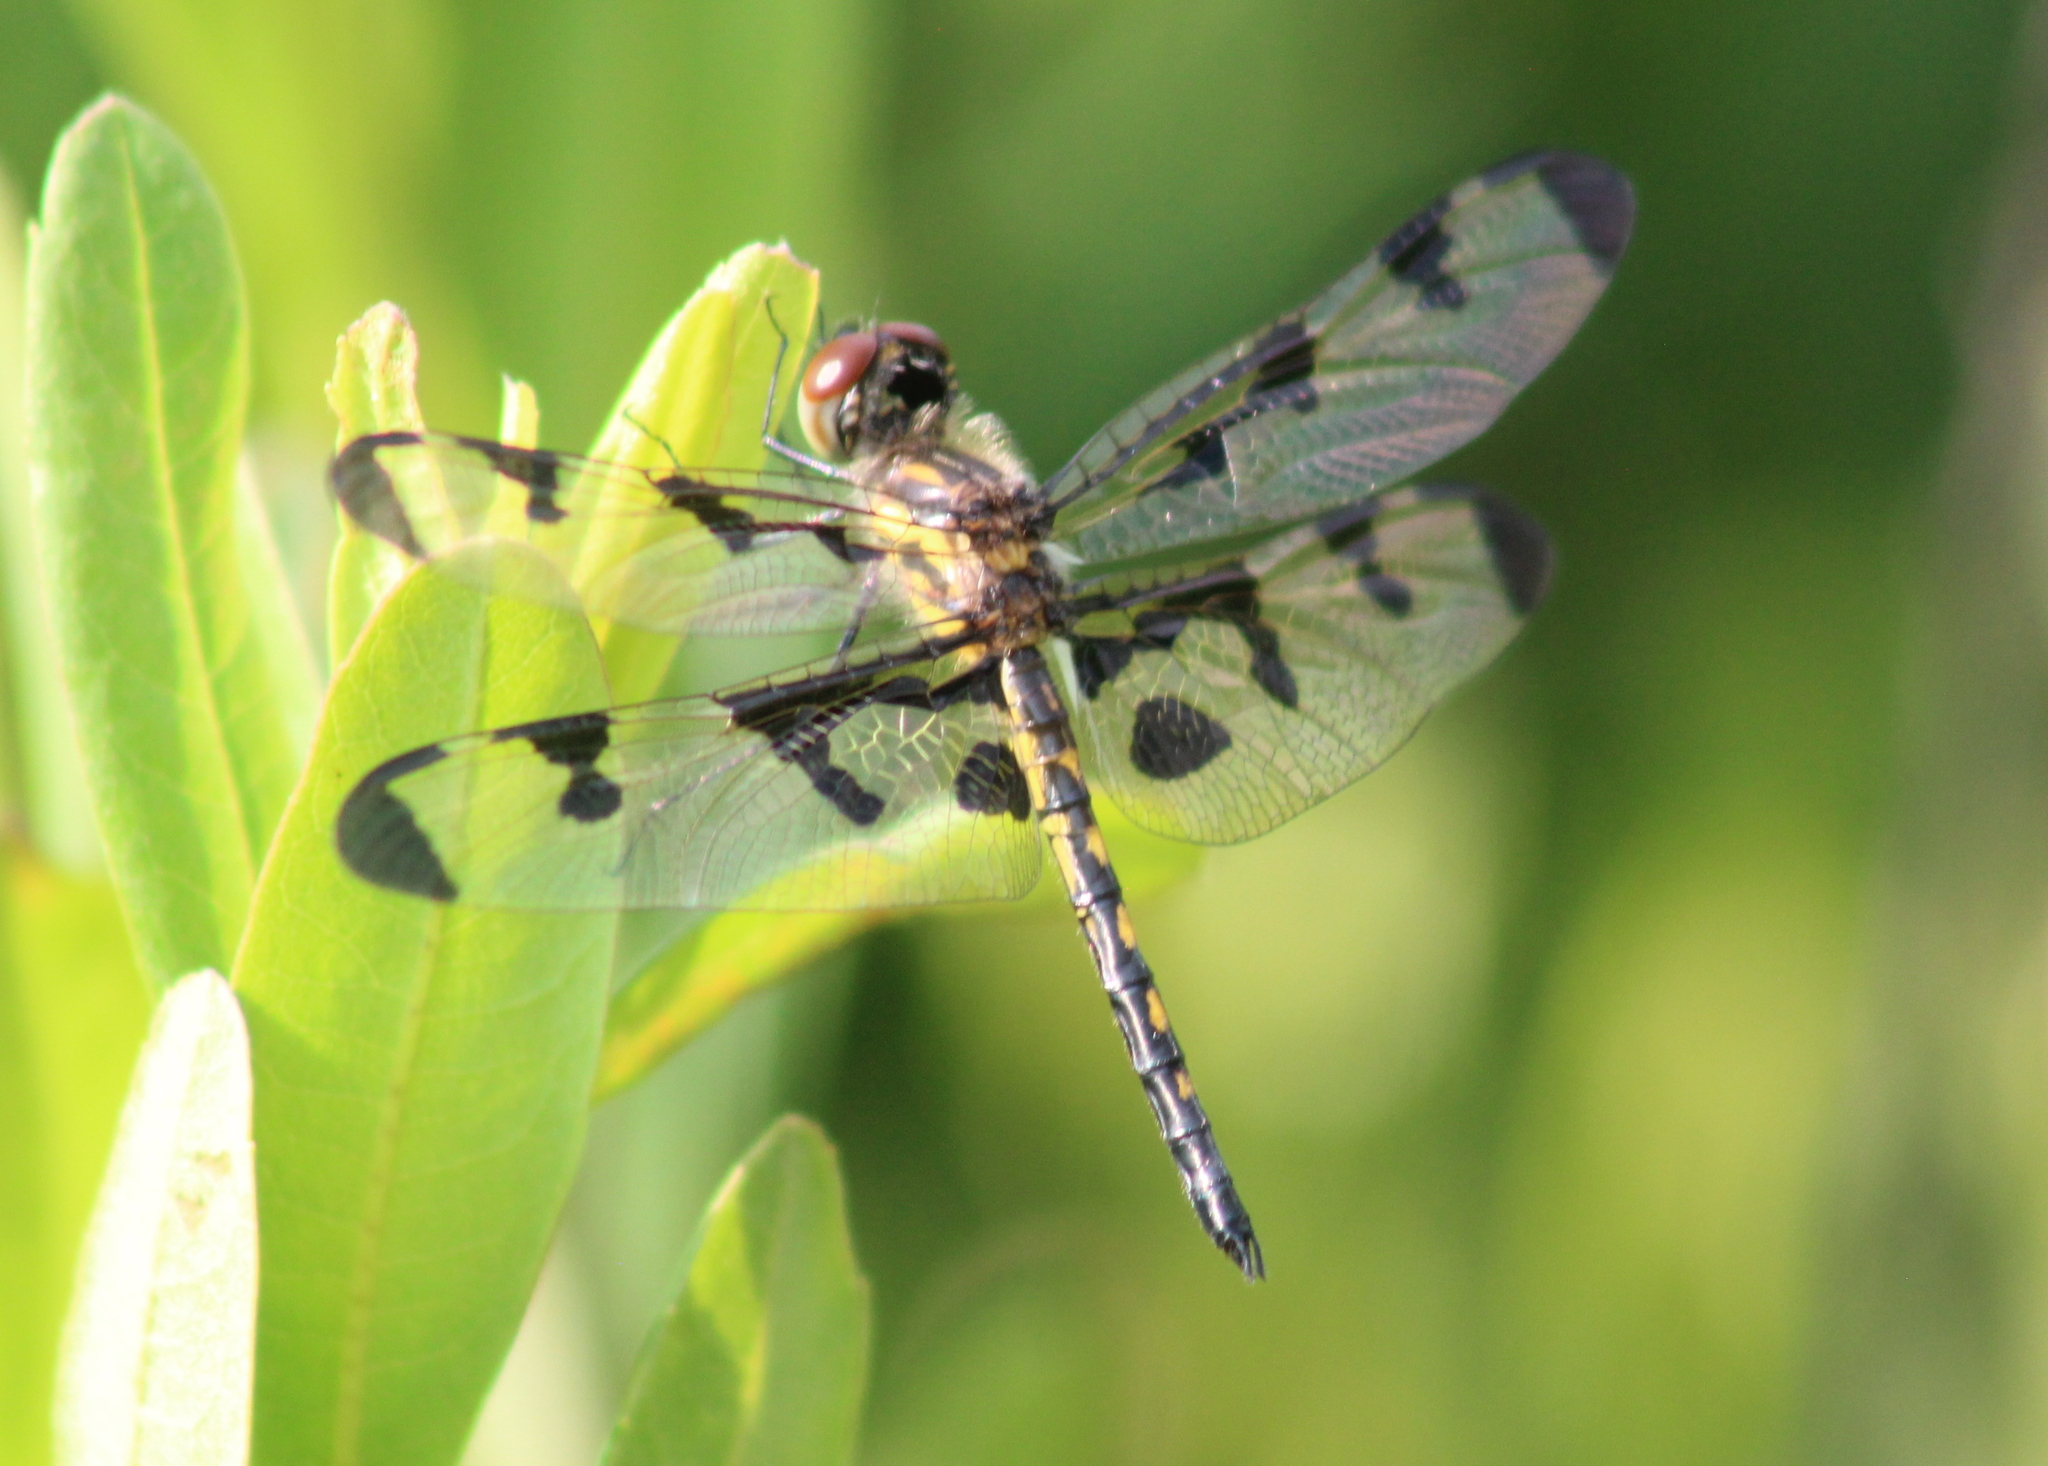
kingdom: Animalia
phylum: Arthropoda
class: Insecta
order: Odonata
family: Libellulidae
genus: Celithemis
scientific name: Celithemis fasciata
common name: Banded pennant
